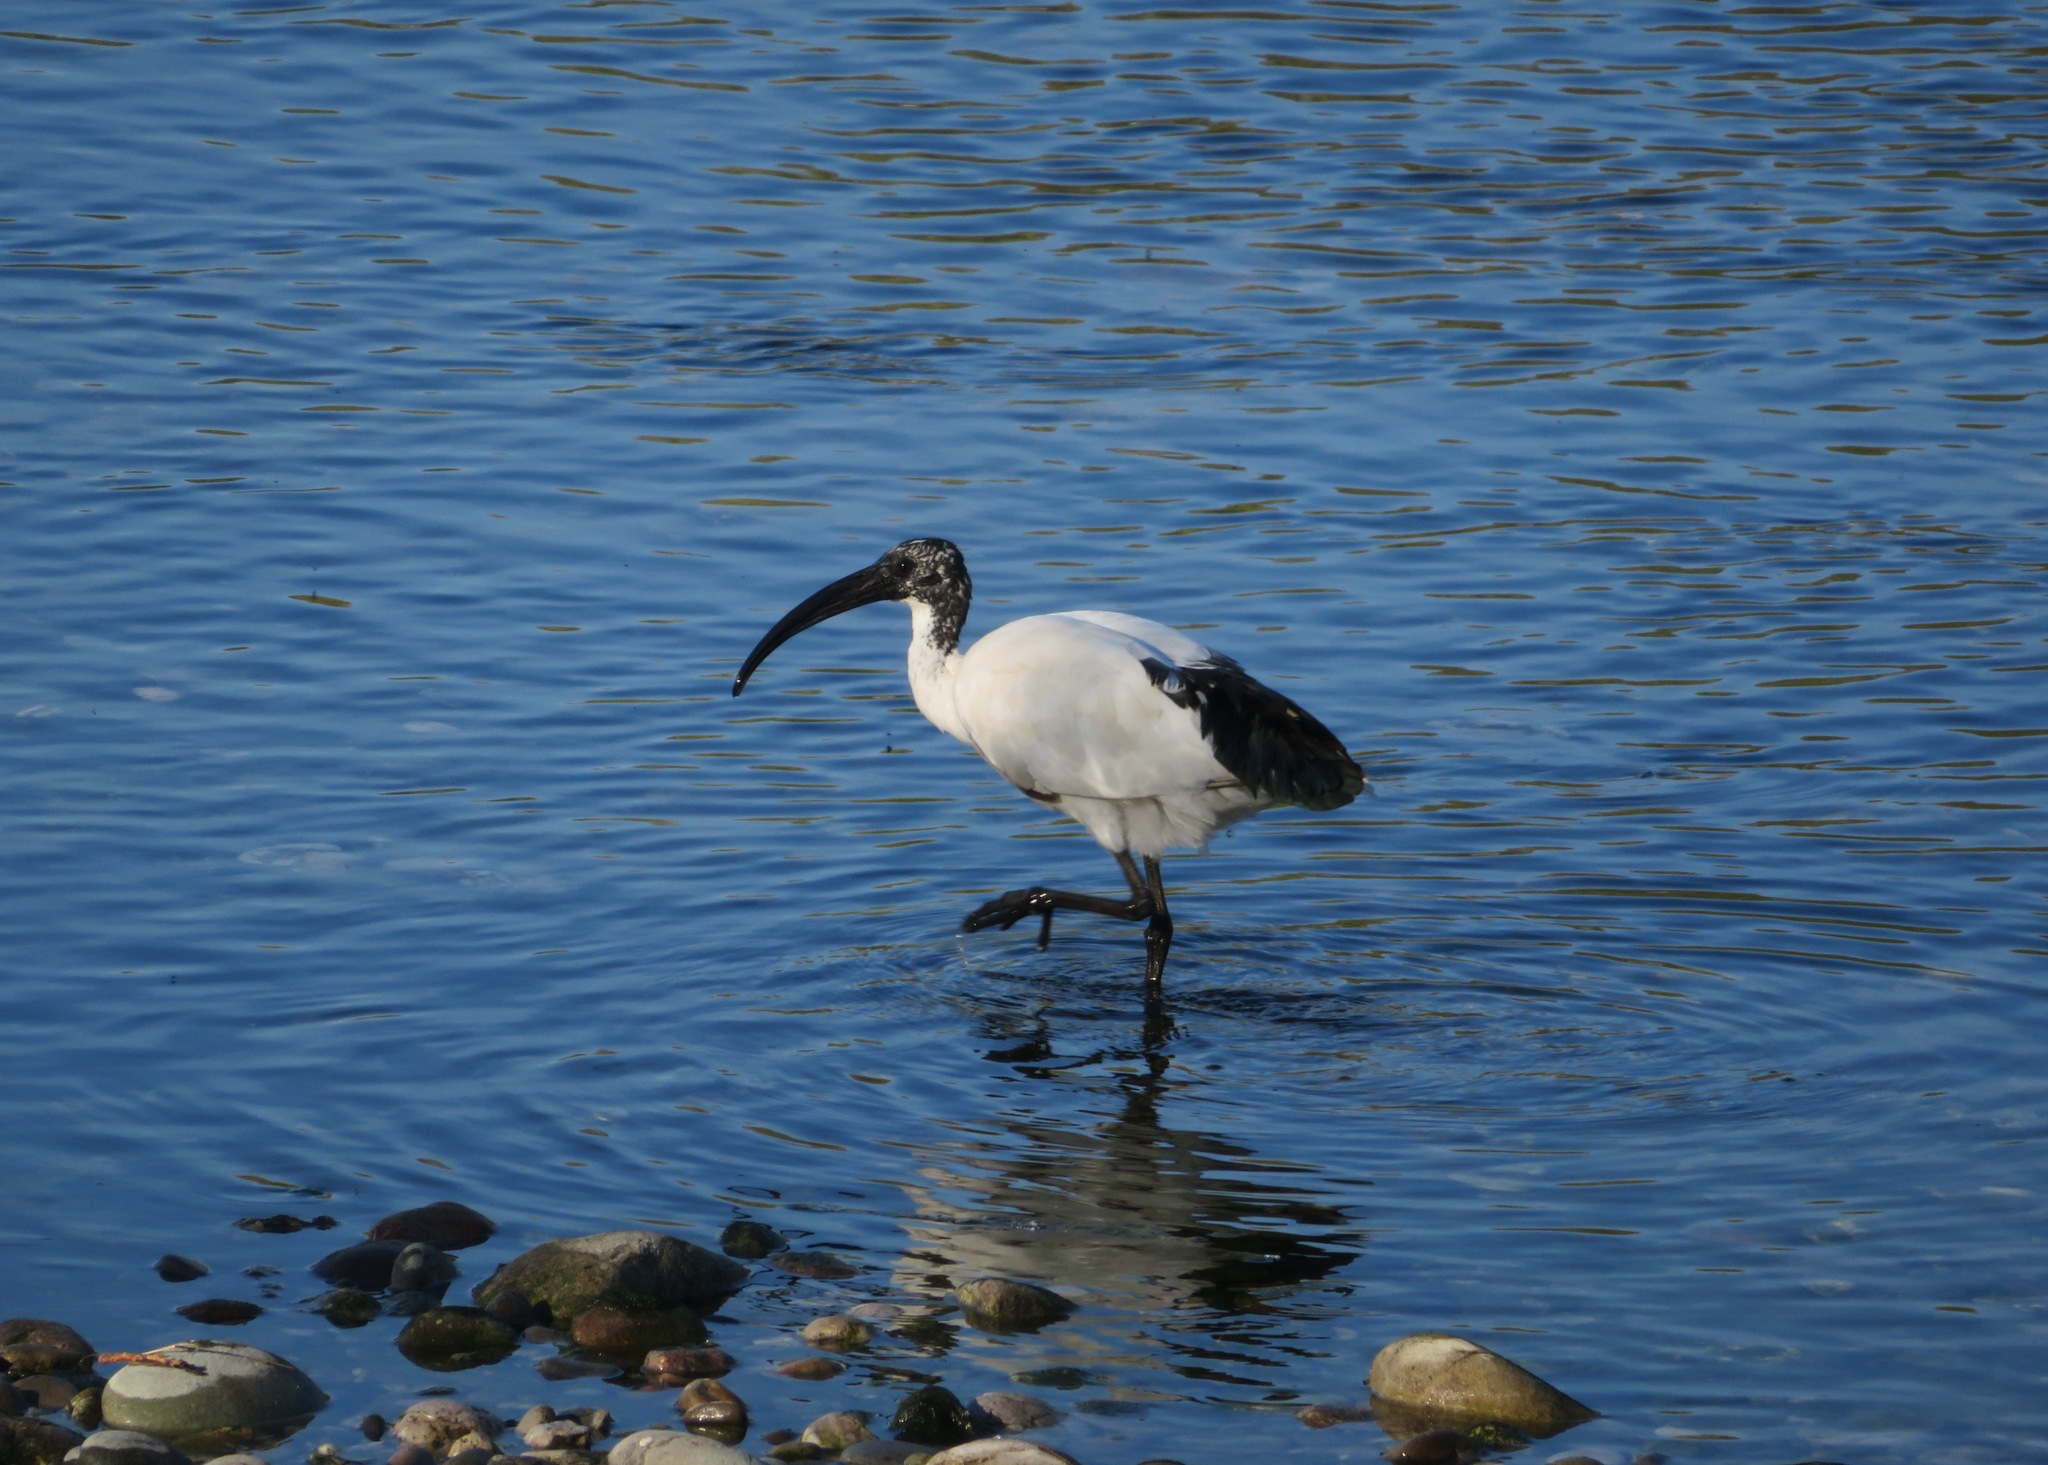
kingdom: Animalia
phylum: Chordata
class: Aves
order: Pelecaniformes
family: Threskiornithidae
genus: Threskiornis
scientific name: Threskiornis aethiopicus
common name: Sacred ibis
